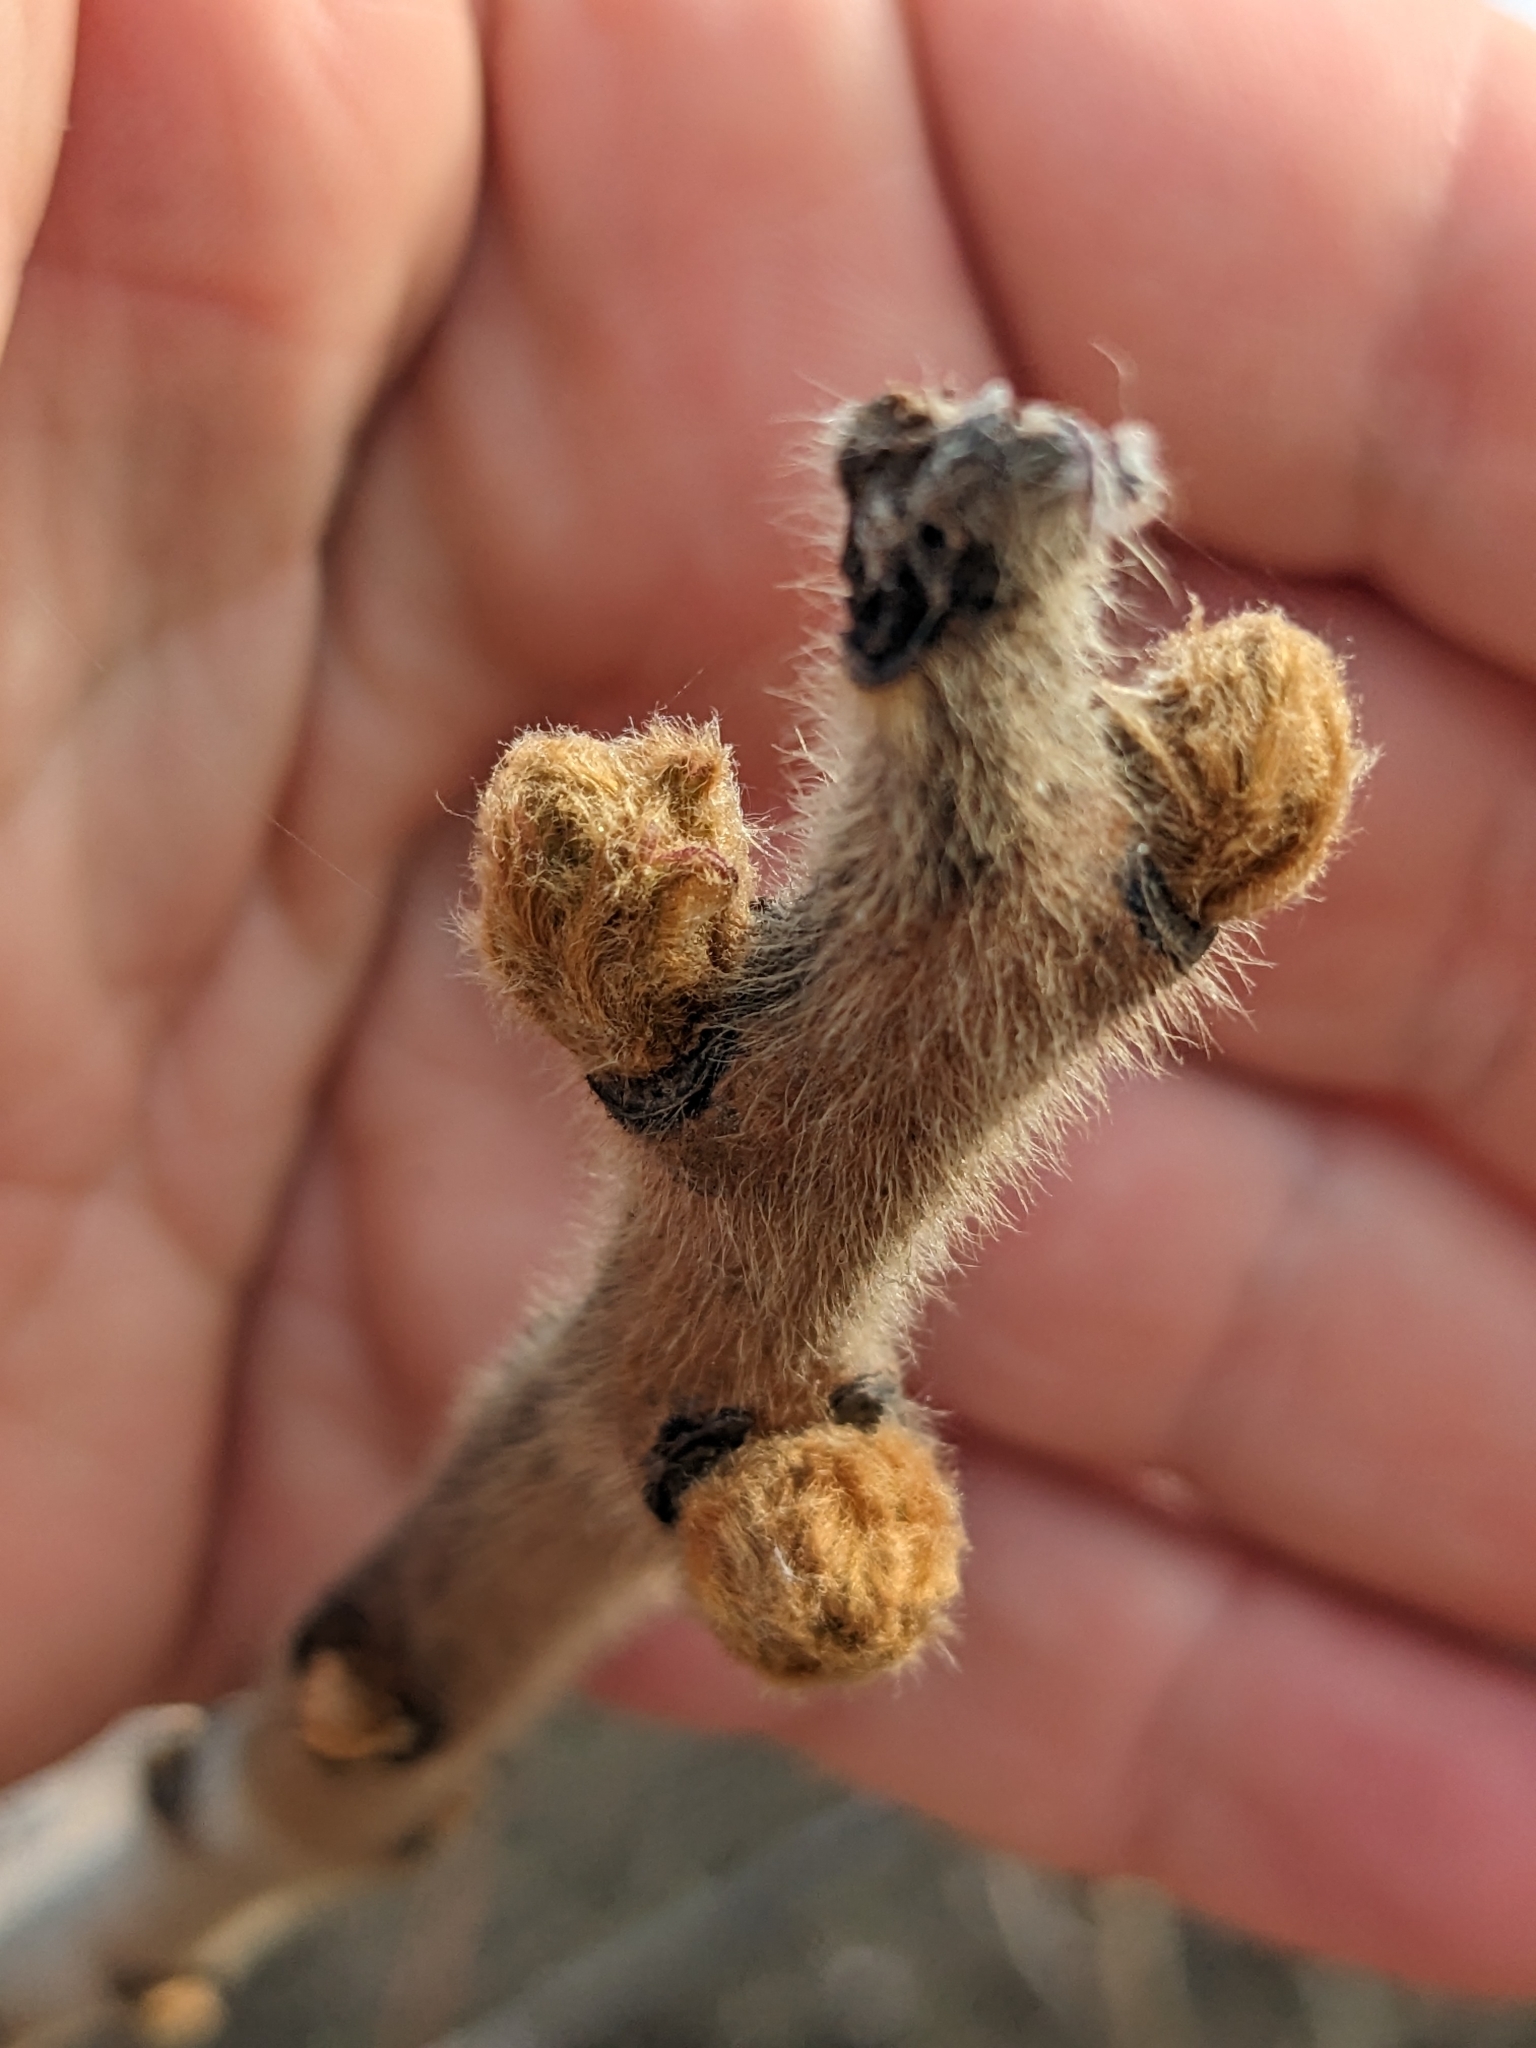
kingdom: Plantae
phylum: Tracheophyta
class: Magnoliopsida
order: Sapindales
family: Anacardiaceae
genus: Rhus
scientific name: Rhus typhina
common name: Staghorn sumac
